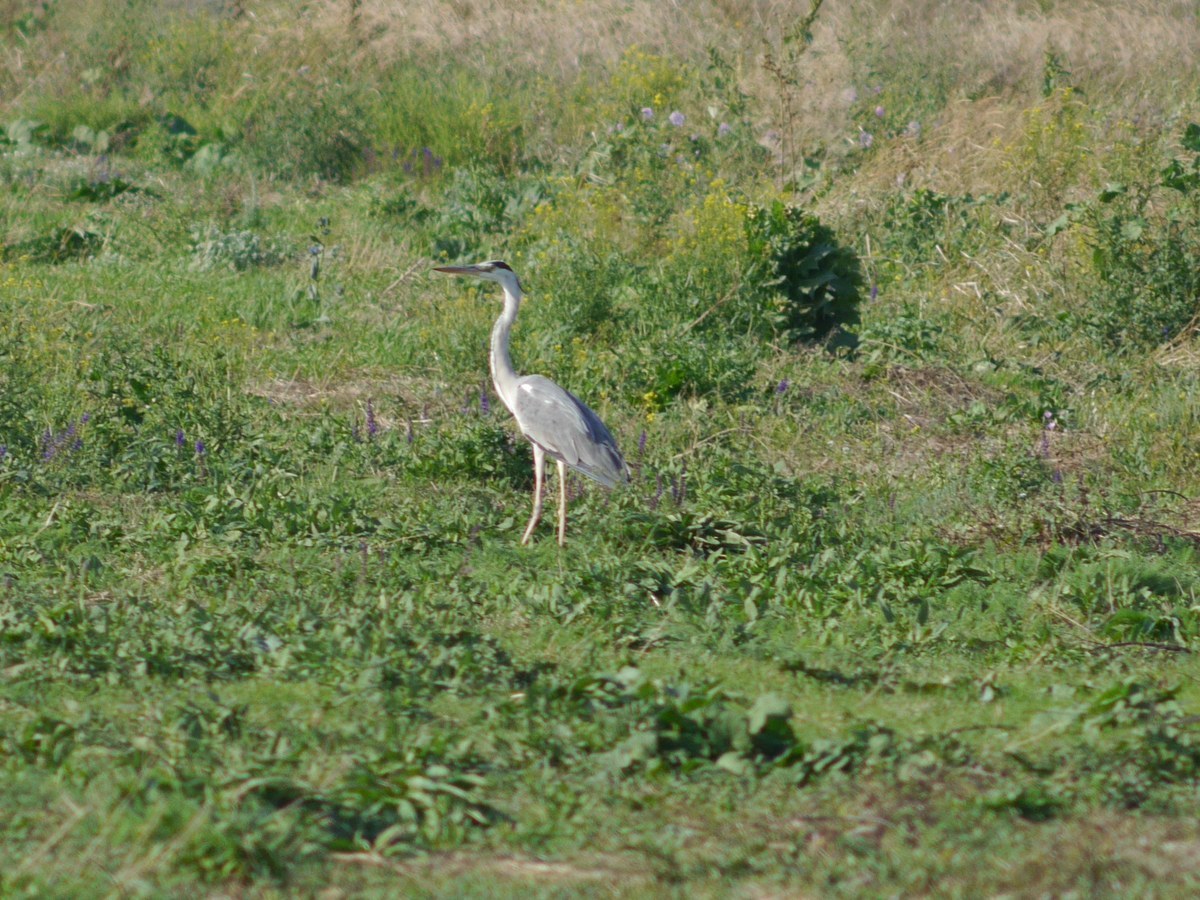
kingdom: Animalia
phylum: Chordata
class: Aves
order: Pelecaniformes
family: Ardeidae
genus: Ardea
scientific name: Ardea cinerea
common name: Grey heron
